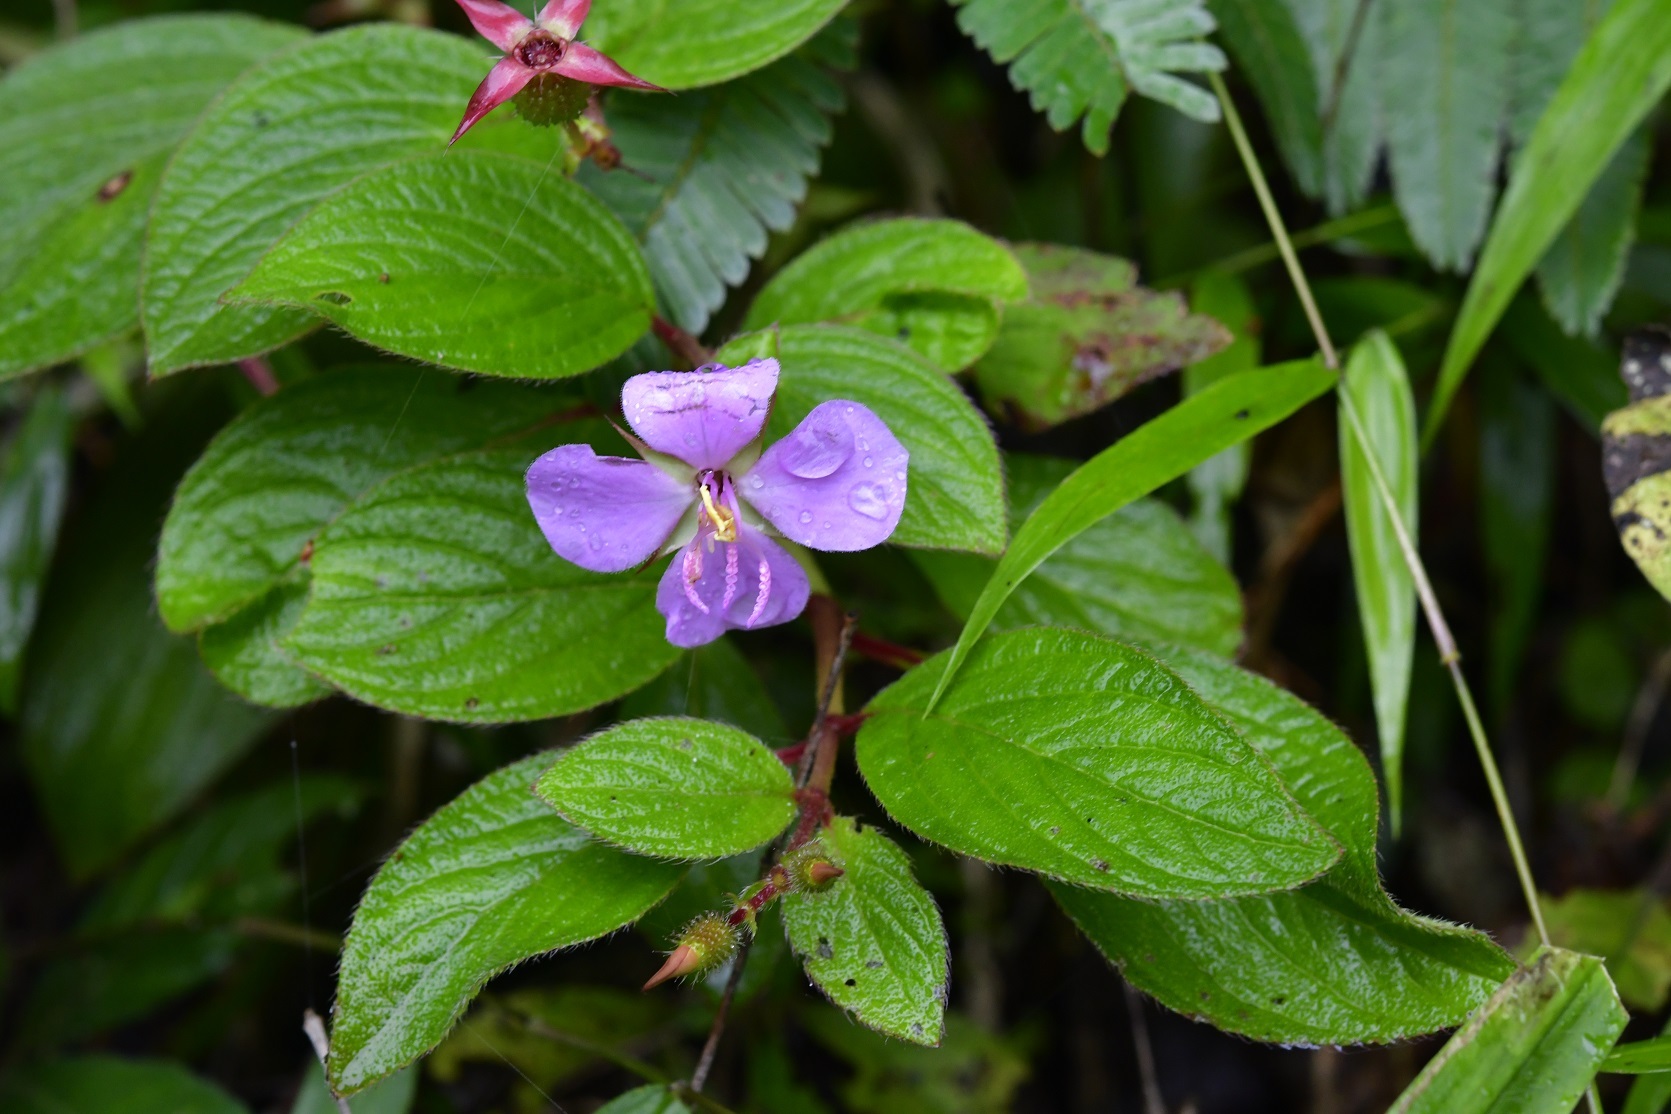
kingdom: Plantae
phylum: Tracheophyta
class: Magnoliopsida
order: Myrtales
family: Melastomataceae
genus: Heterocentron
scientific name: Heterocentron muricatum
